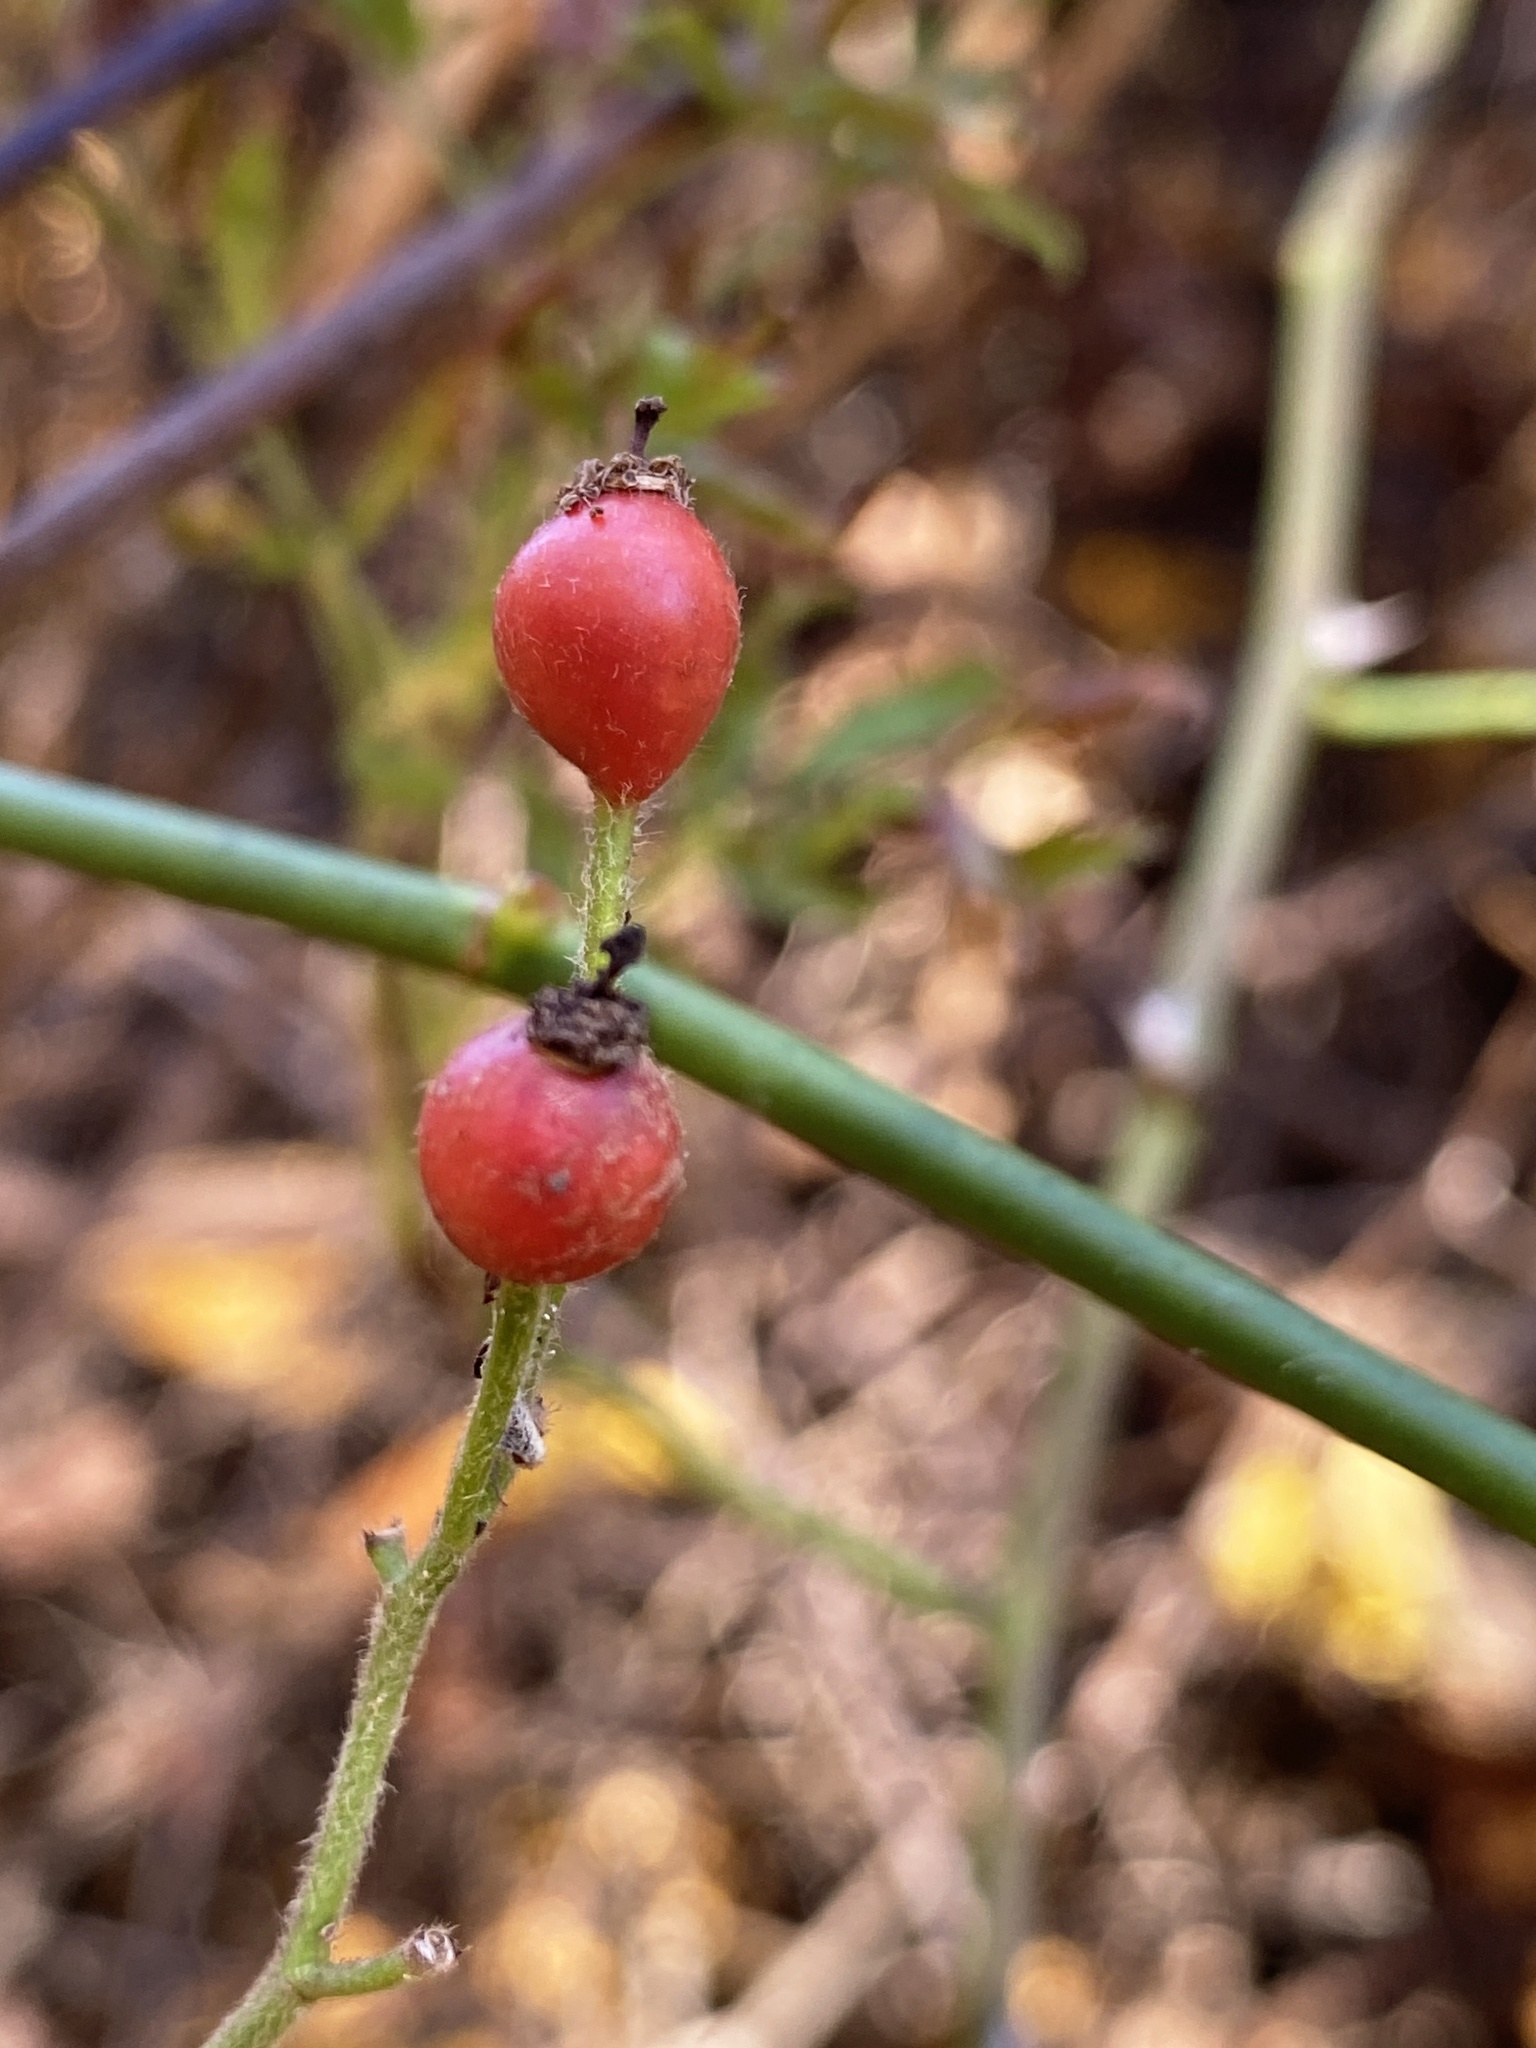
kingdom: Plantae
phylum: Tracheophyta
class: Magnoliopsida
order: Rosales
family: Rosaceae
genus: Rosa
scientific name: Rosa multiflora
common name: Multiflora rose
